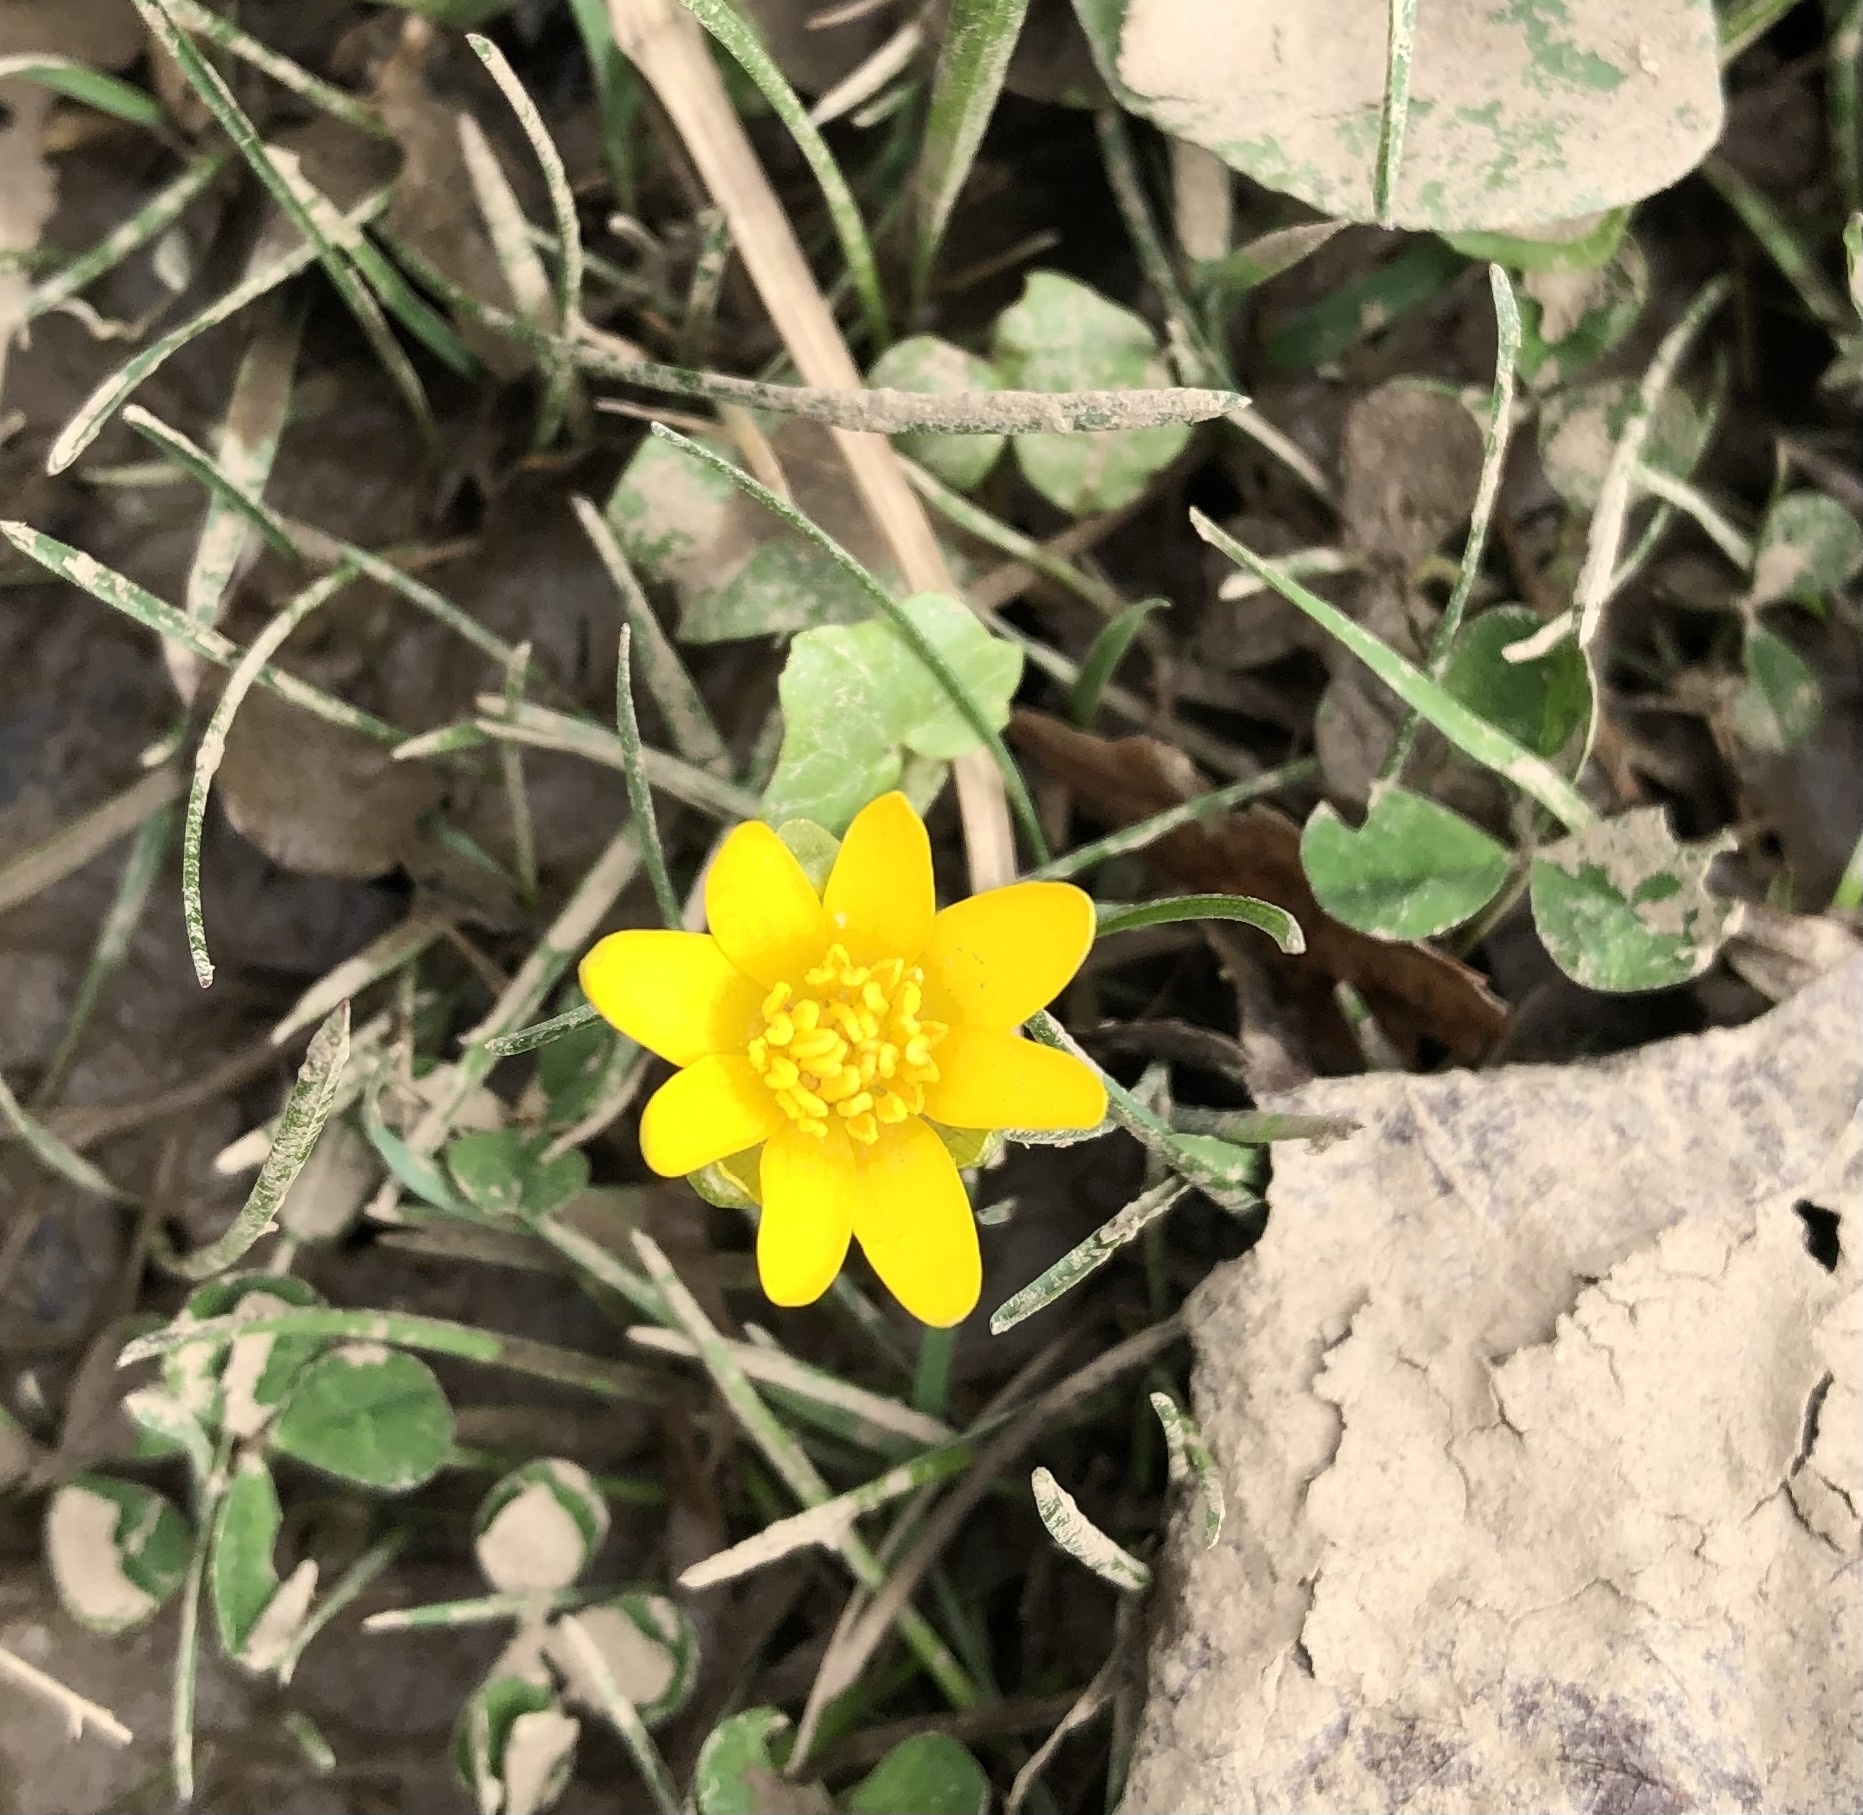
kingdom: Plantae
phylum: Tracheophyta
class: Magnoliopsida
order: Ranunculales
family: Ranunculaceae
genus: Ficaria
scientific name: Ficaria verna
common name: Lesser celandine
